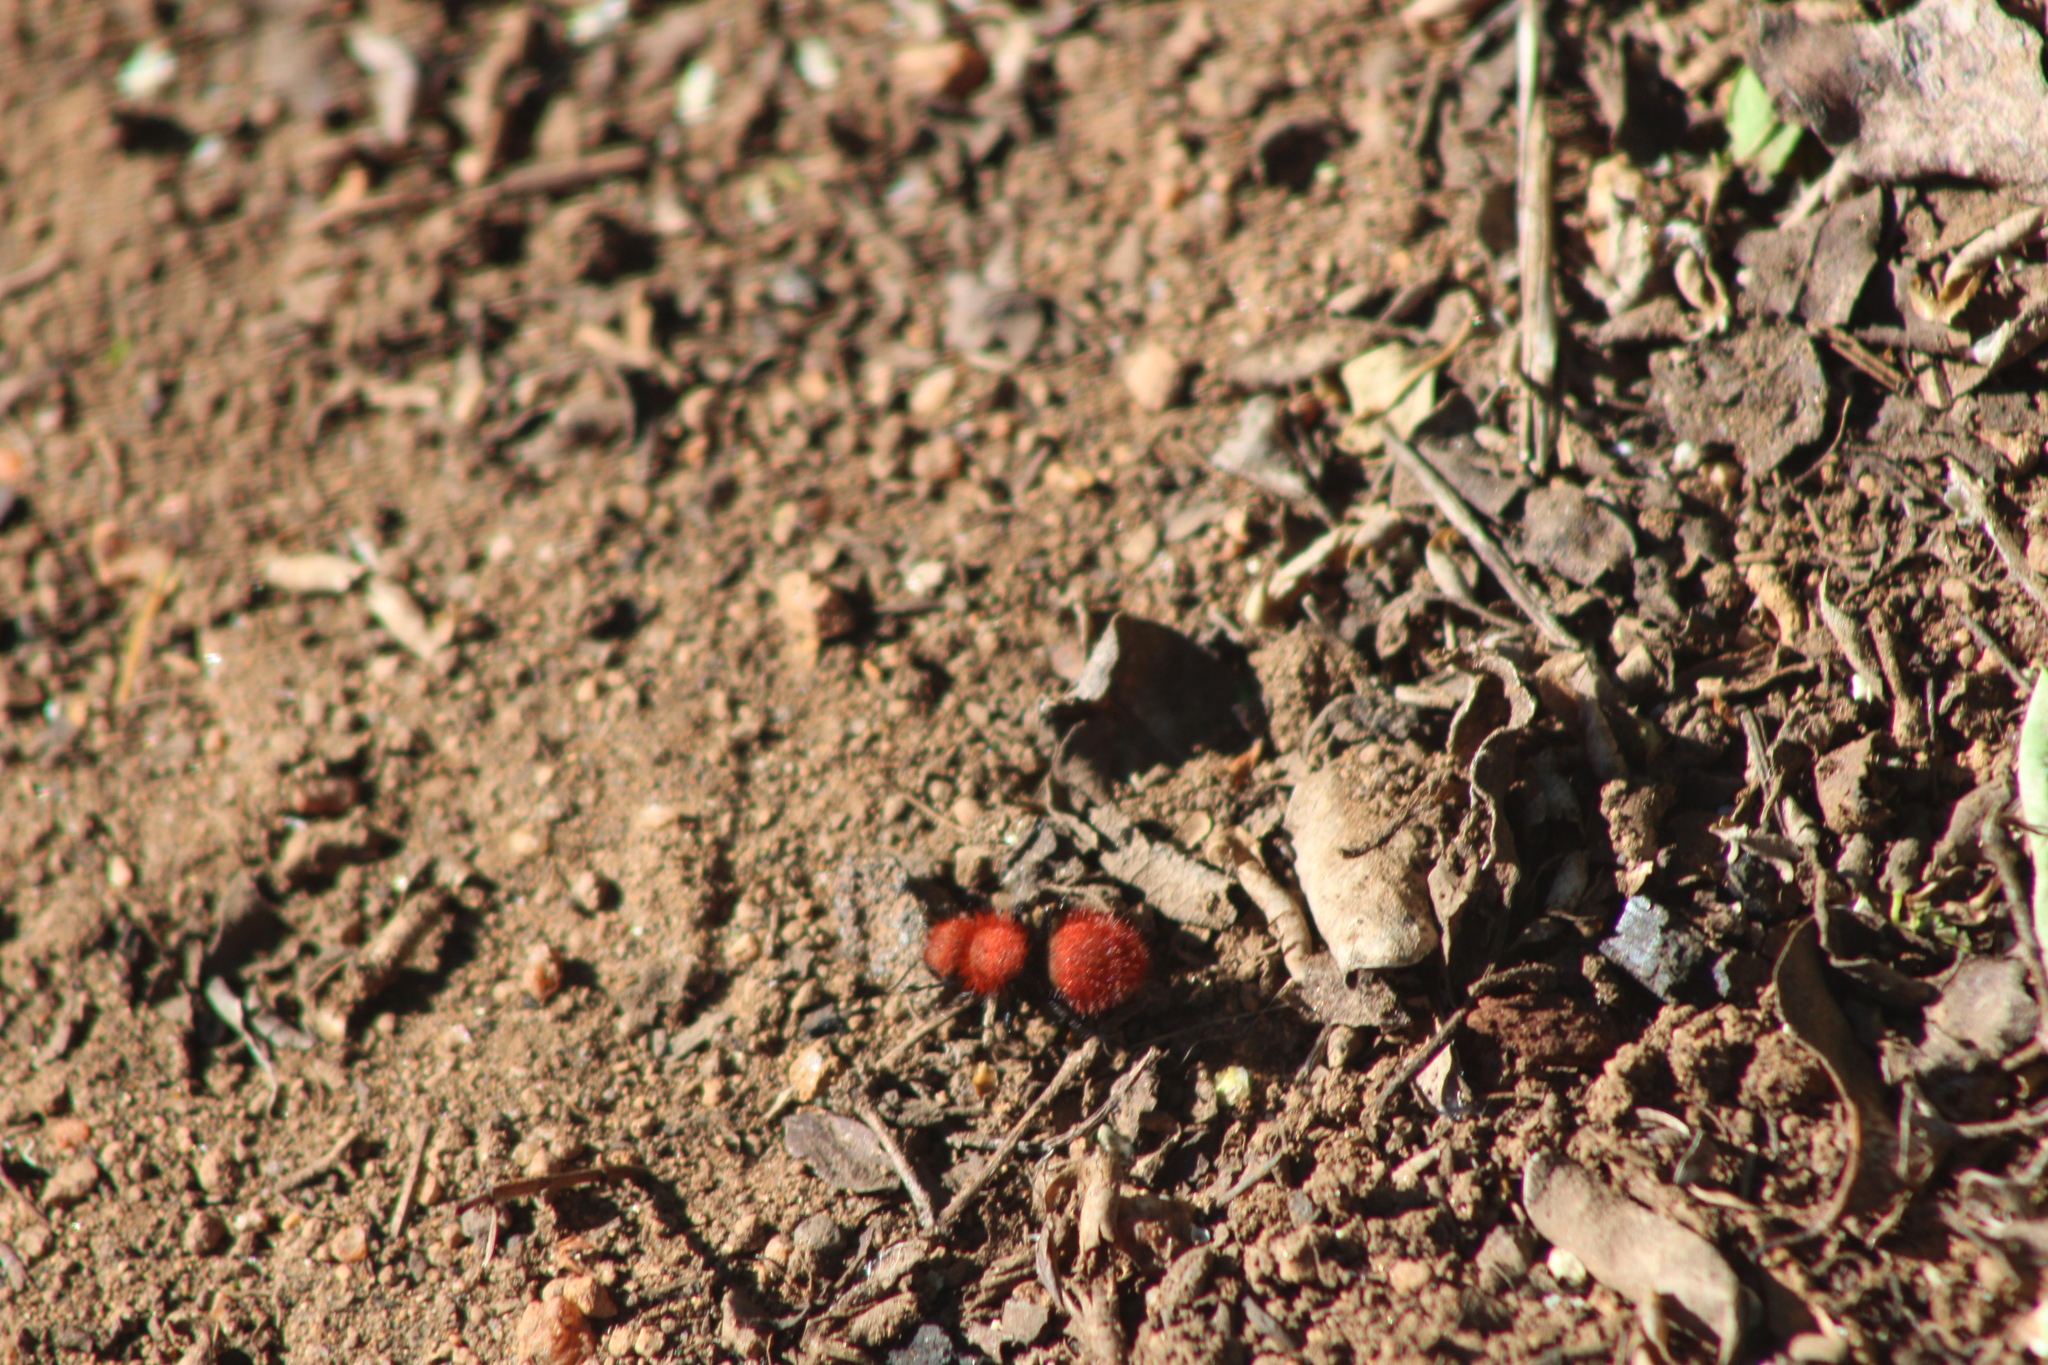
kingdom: Animalia
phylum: Arthropoda
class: Insecta
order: Hymenoptera
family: Mutillidae
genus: Dasymutilla
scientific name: Dasymutilla
